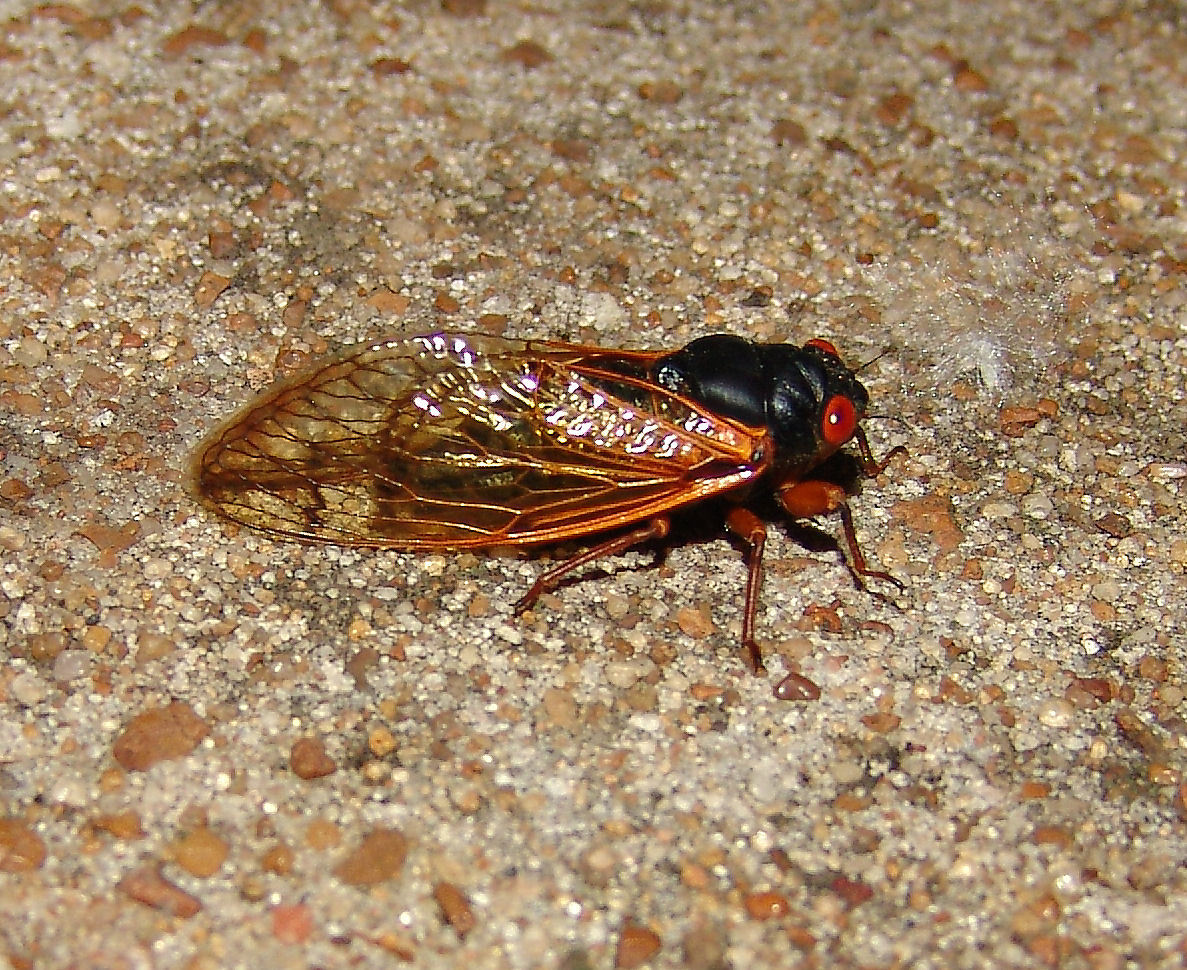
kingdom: Animalia
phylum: Arthropoda
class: Insecta
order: Hemiptera
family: Cicadidae
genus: Magicicada
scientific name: Magicicada
